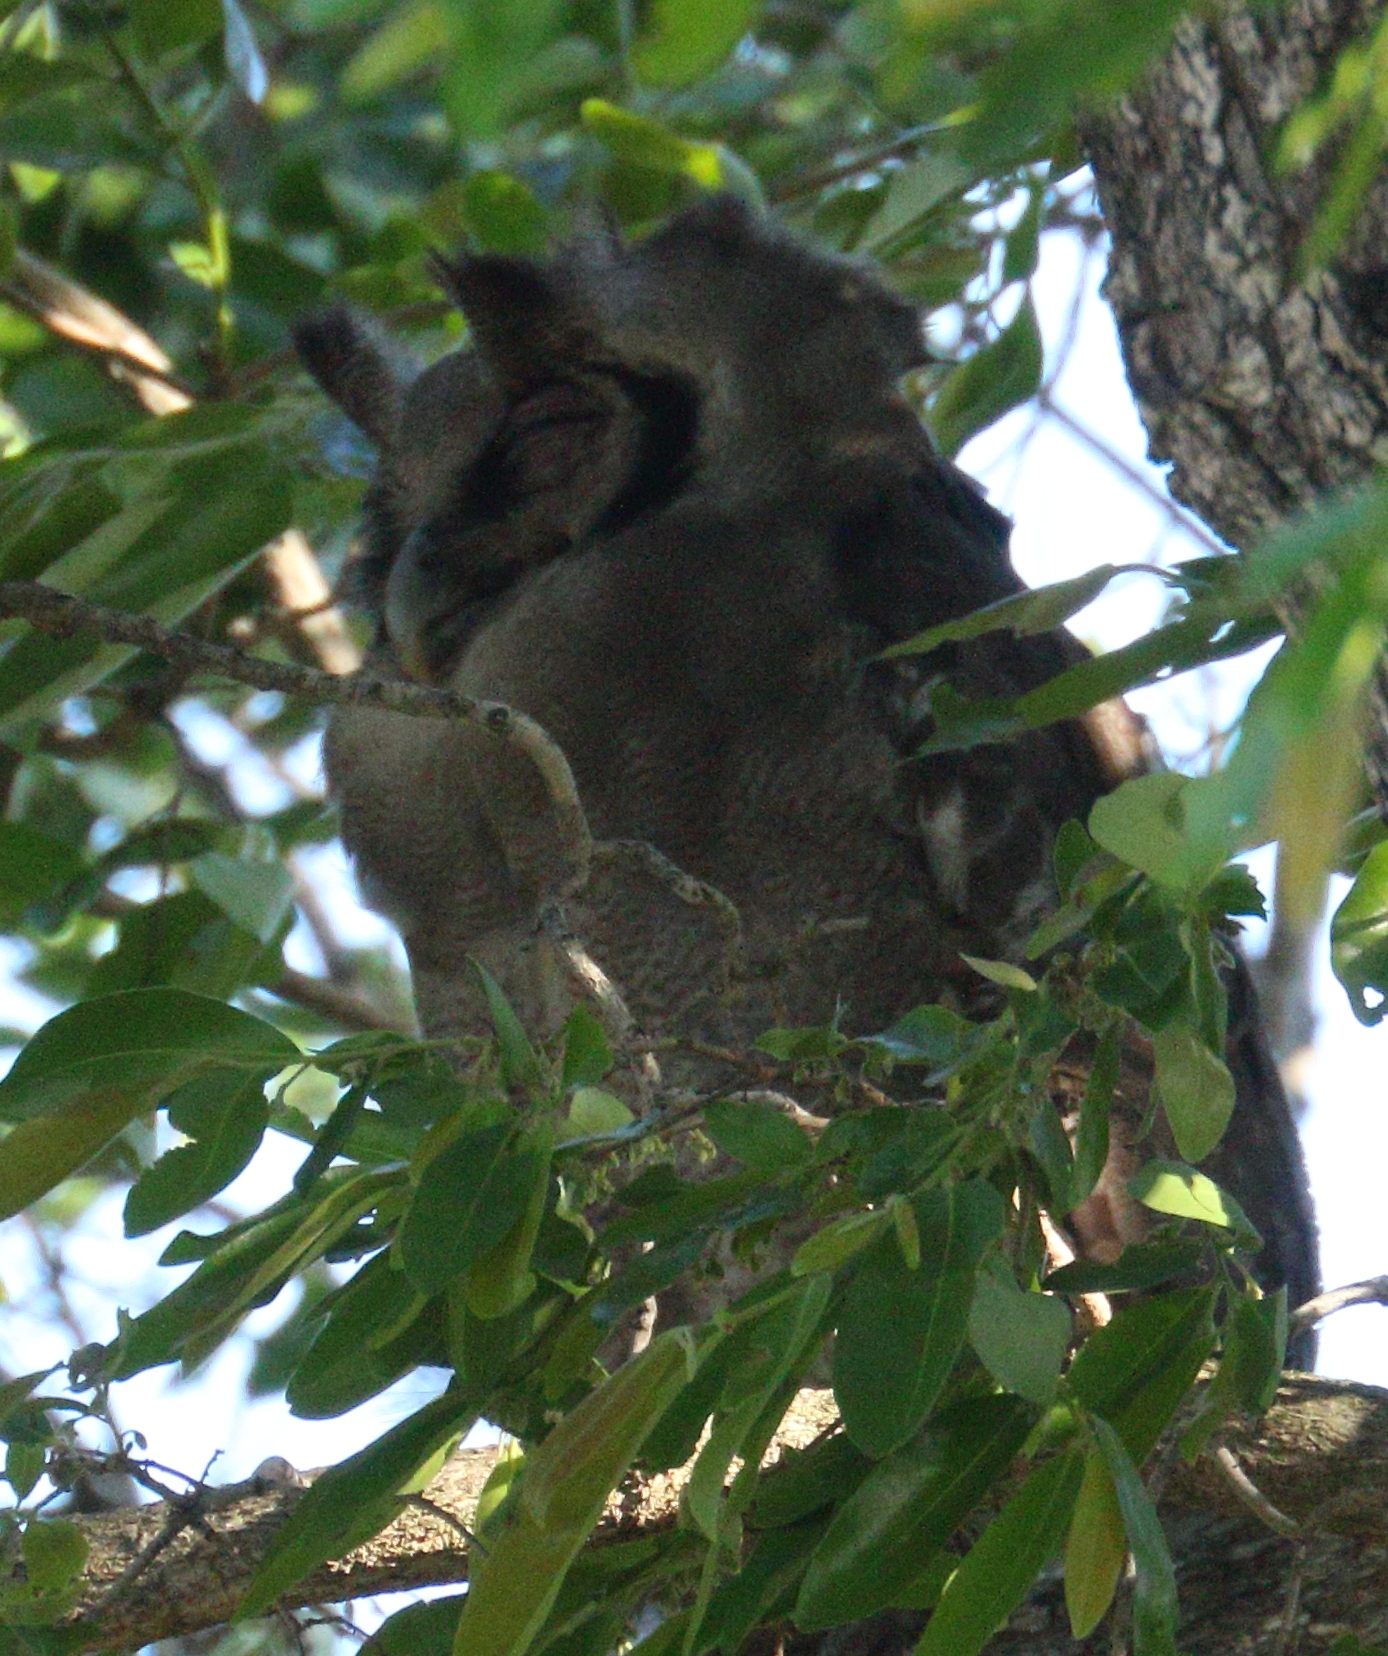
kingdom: Animalia
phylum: Chordata
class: Aves
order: Strigiformes
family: Strigidae
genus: Bubo
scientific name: Bubo lacteus
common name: Verreaux's eagle-owl
